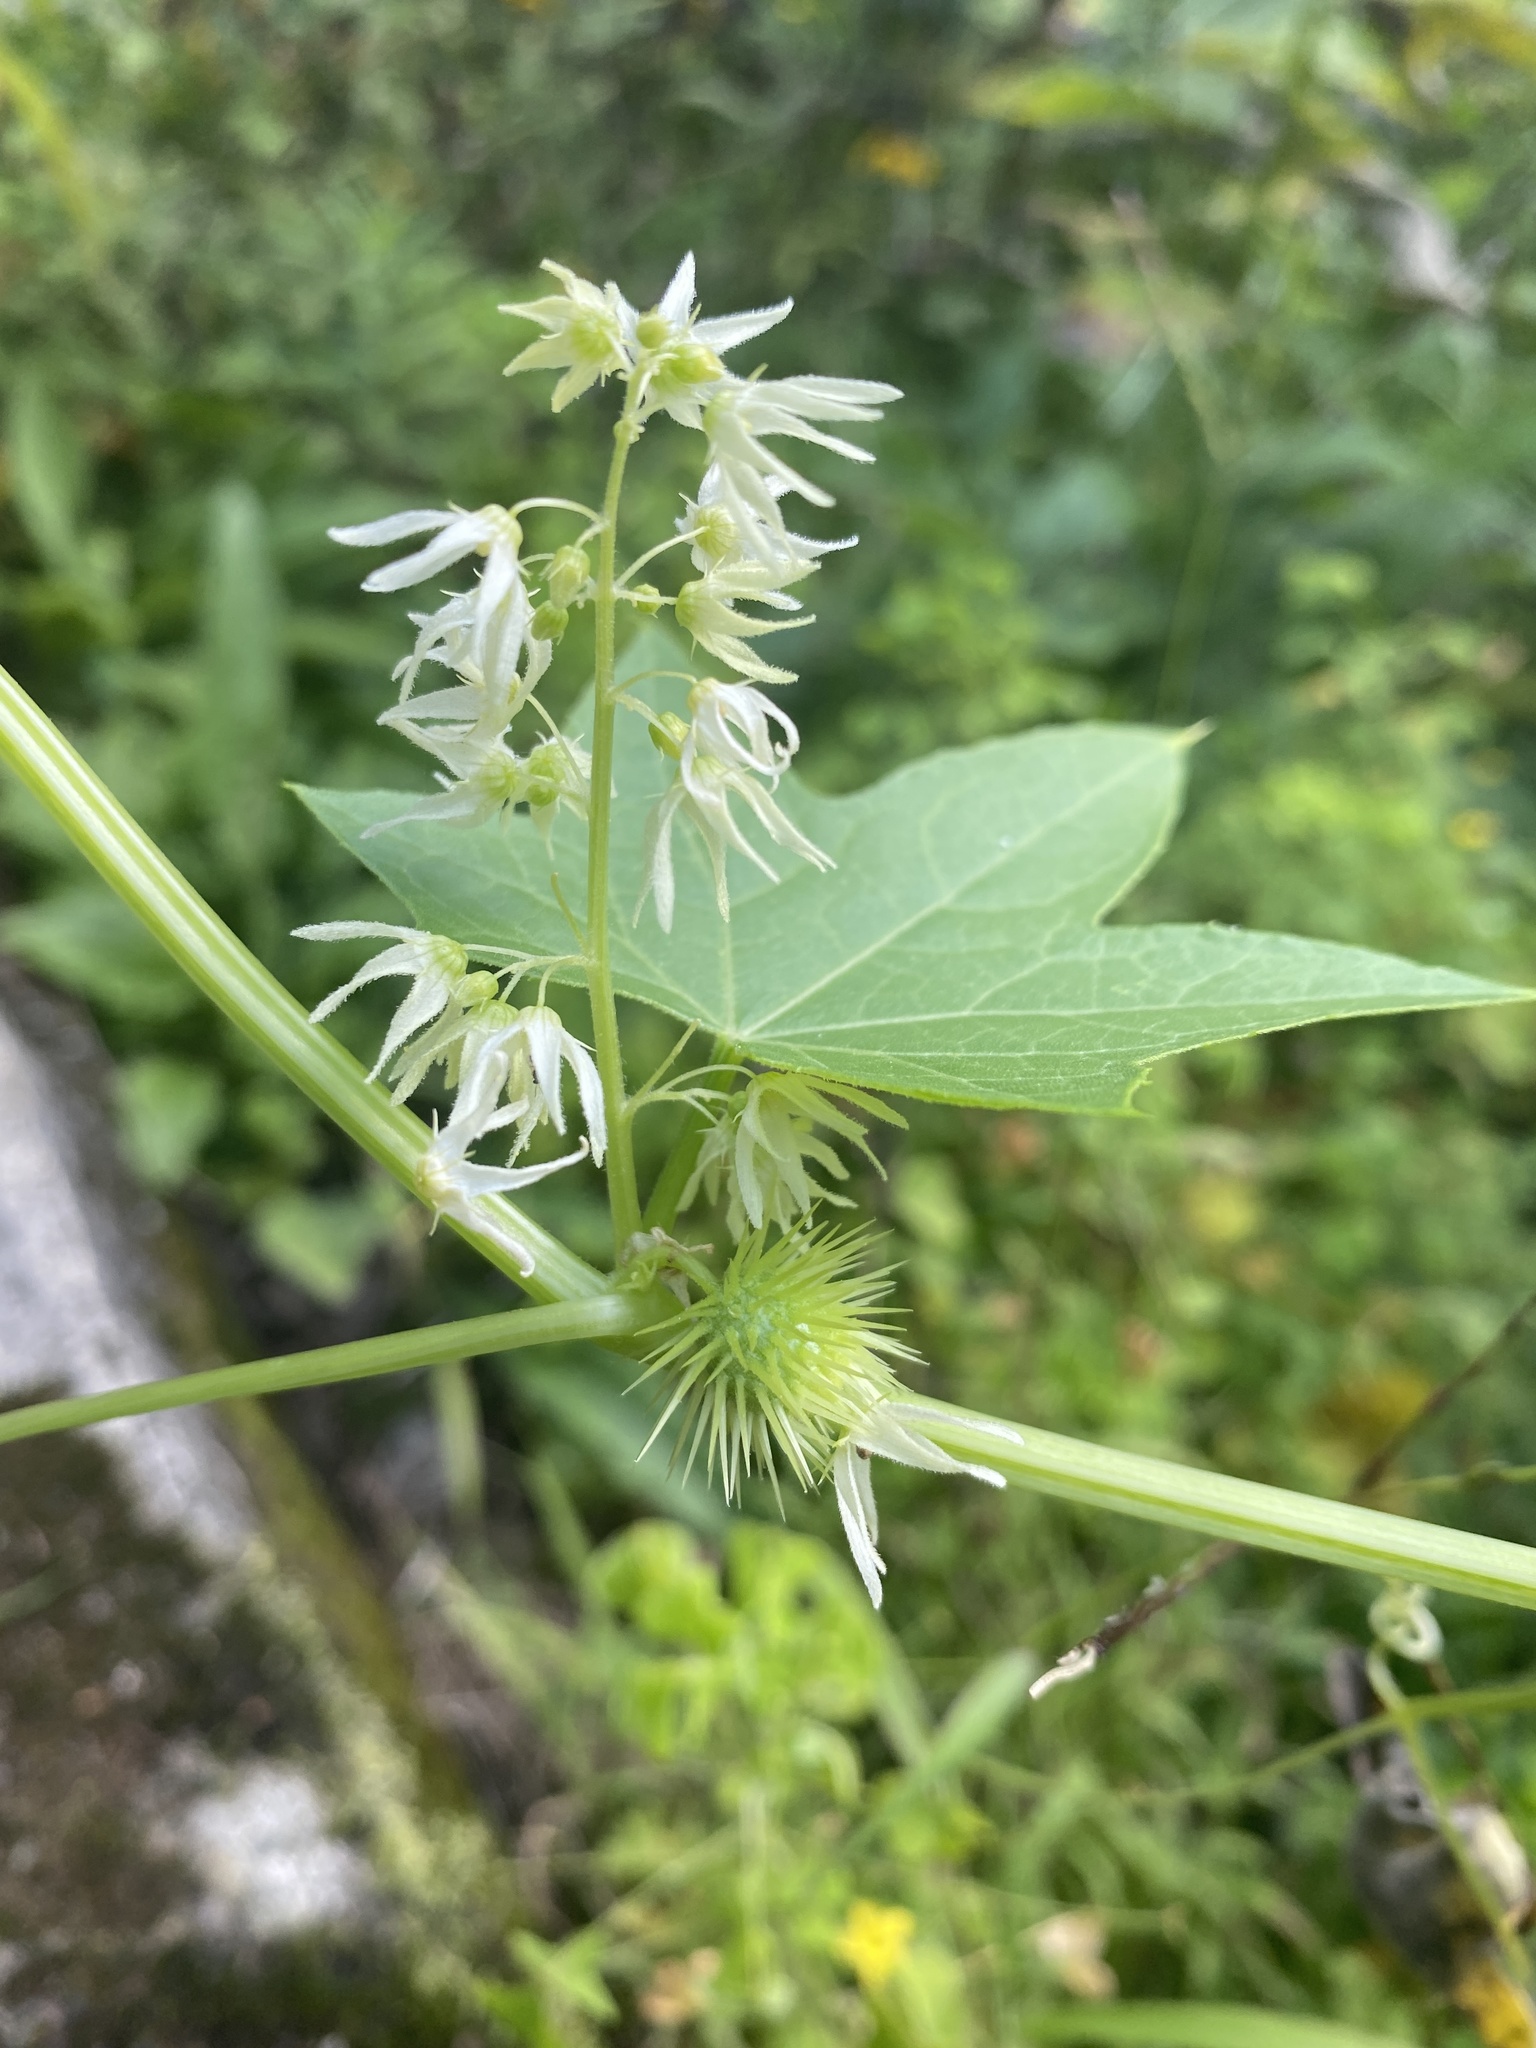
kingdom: Plantae
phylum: Tracheophyta
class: Magnoliopsida
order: Cucurbitales
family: Cucurbitaceae
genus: Echinocystis
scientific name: Echinocystis lobata
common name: Wild cucumber
